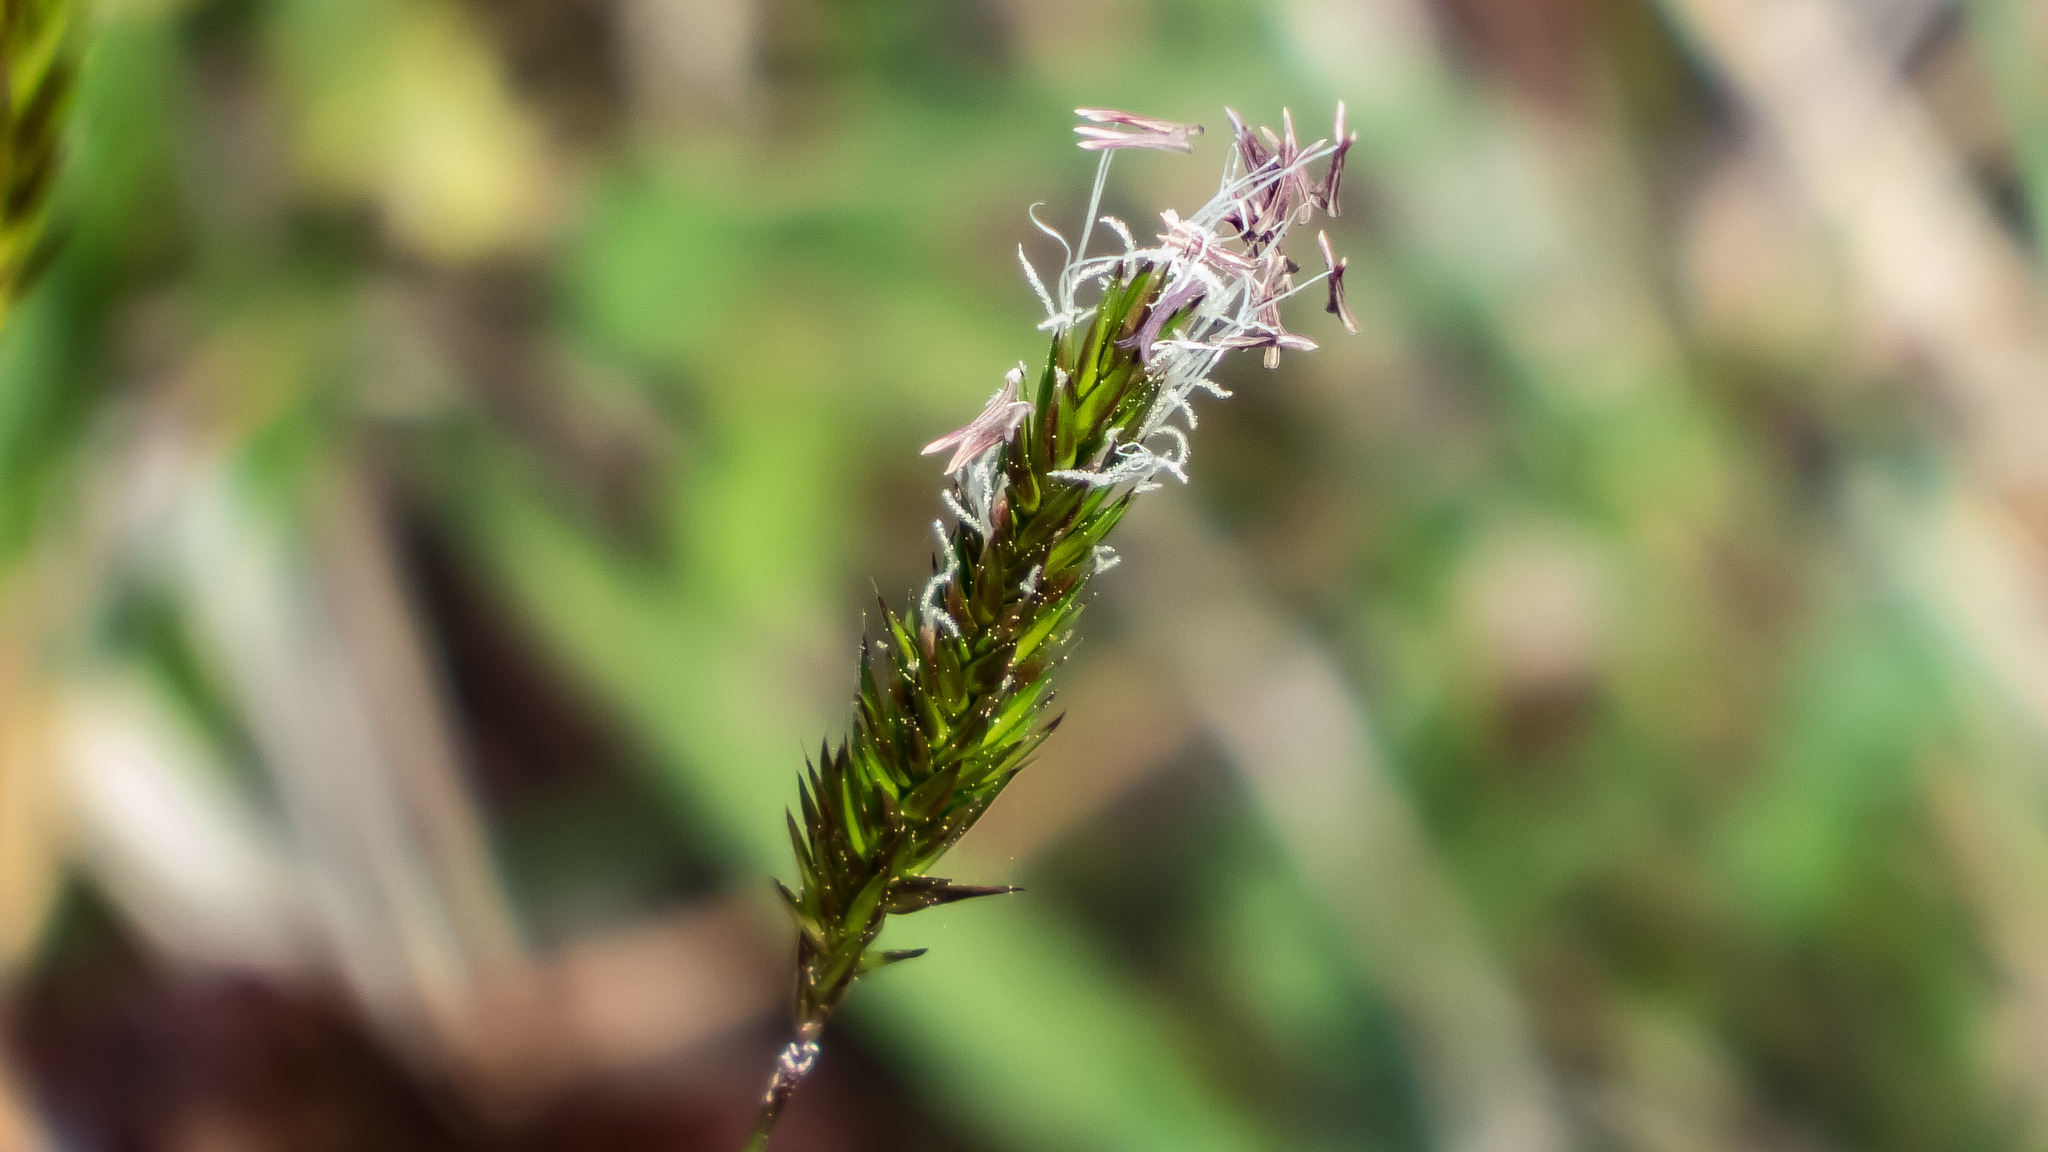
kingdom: Plantae
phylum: Tracheophyta
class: Liliopsida
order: Poales
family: Poaceae
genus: Anthoxanthum
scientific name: Anthoxanthum odoratum
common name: Sweet vernalgrass
